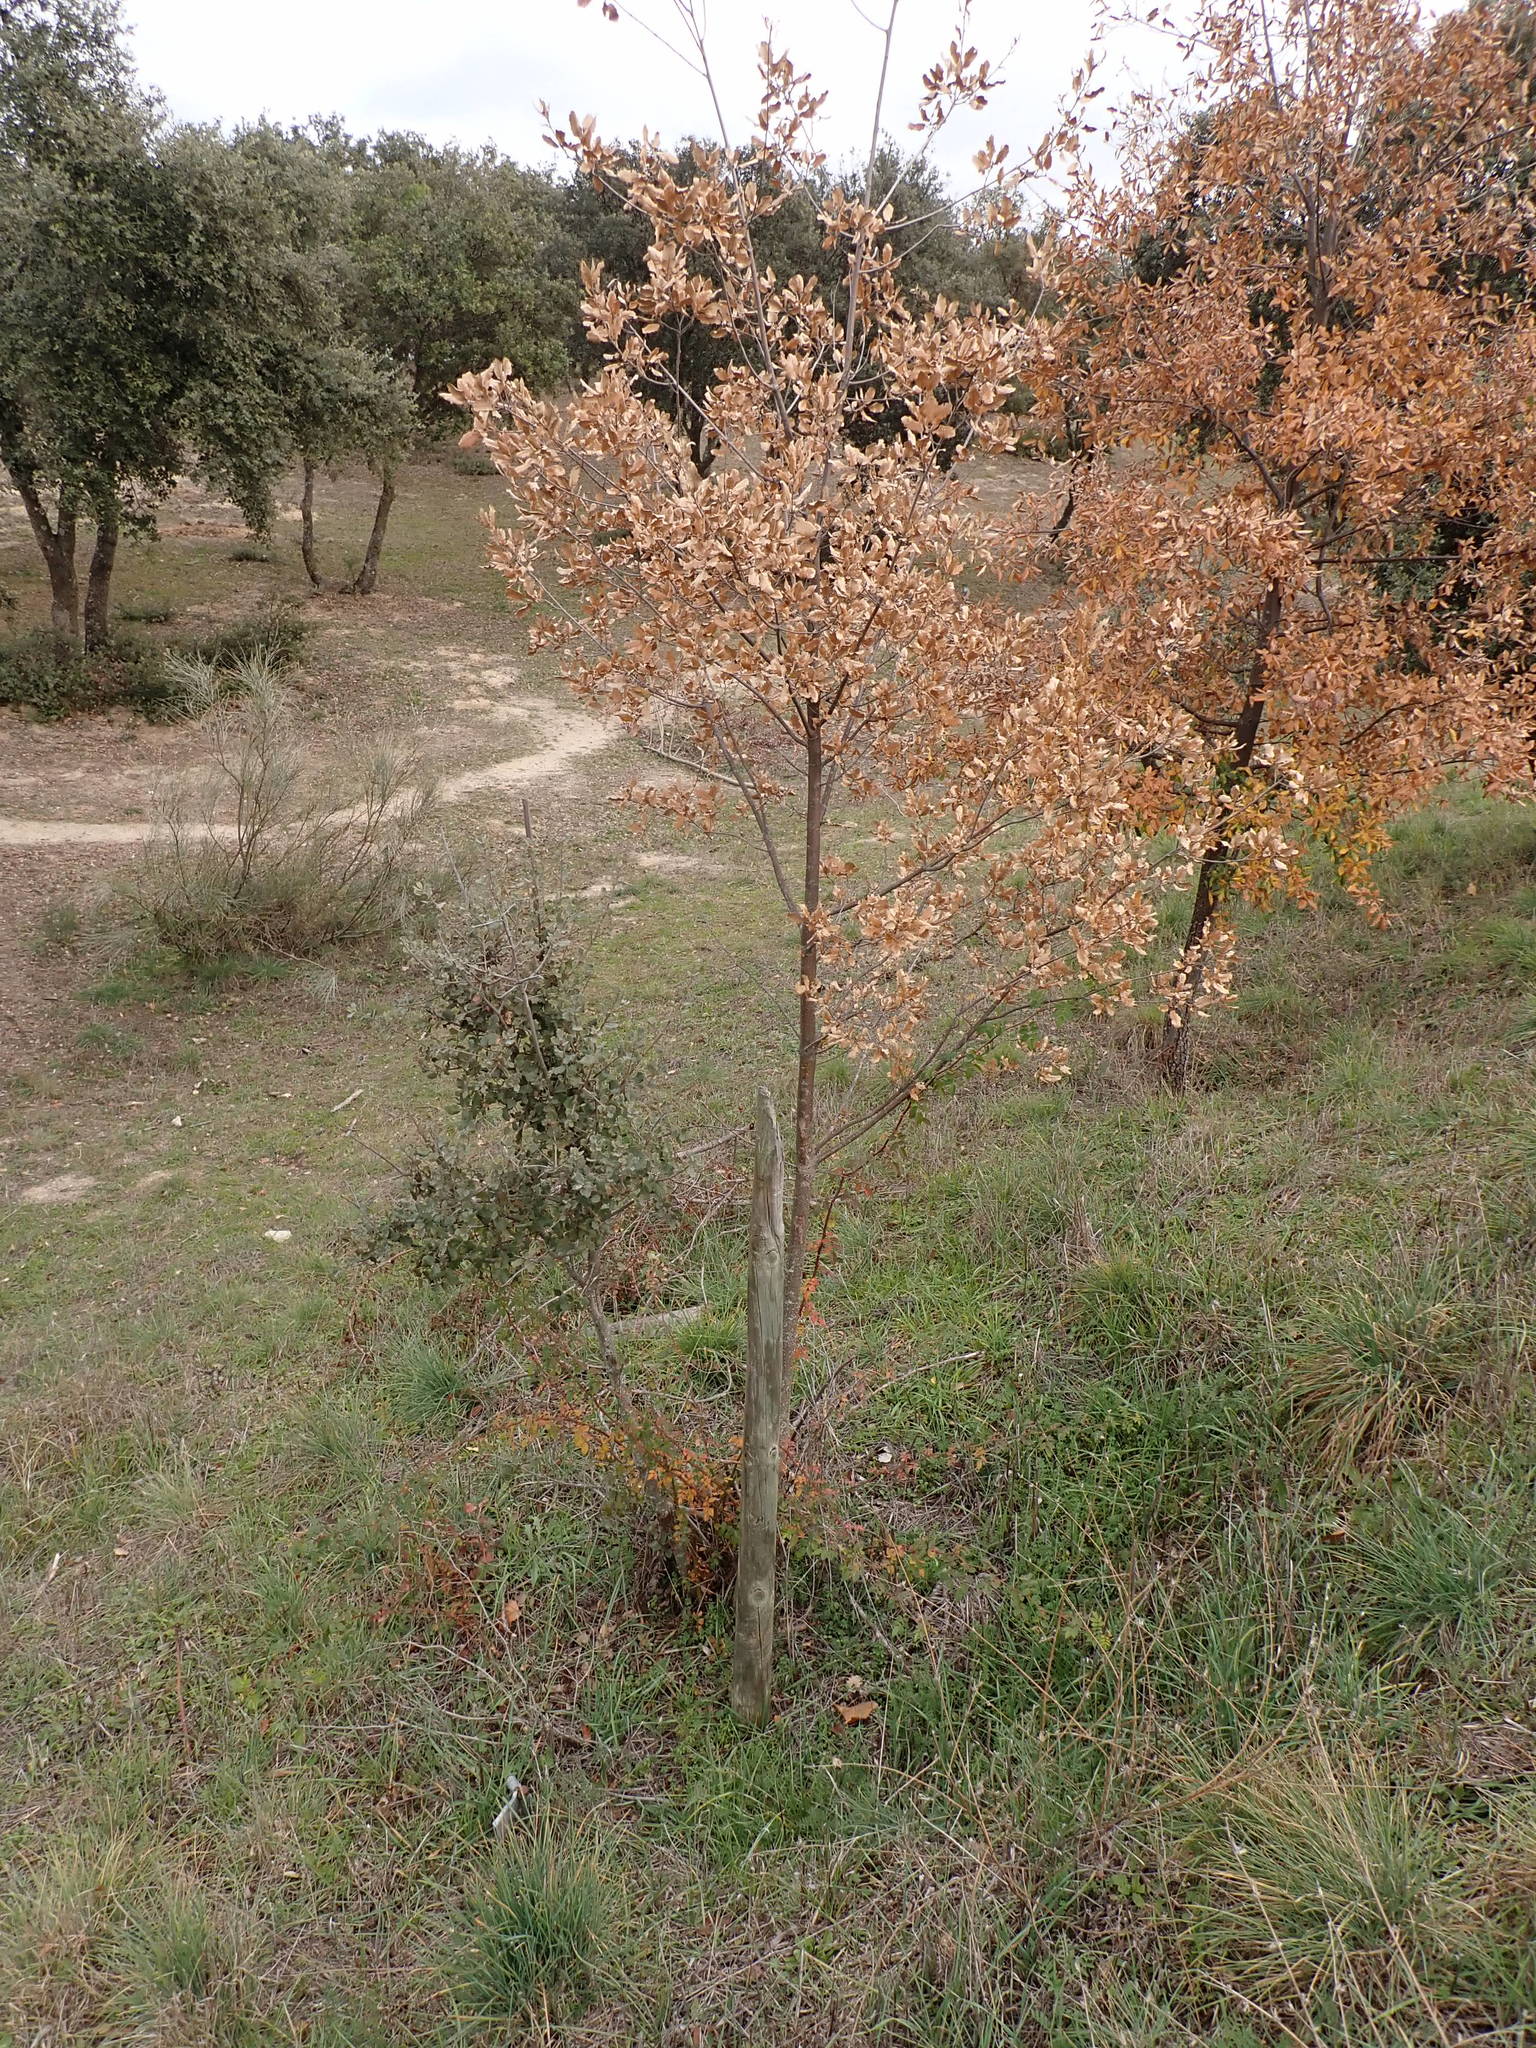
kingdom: Plantae
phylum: Tracheophyta
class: Magnoliopsida
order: Fagales
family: Fagaceae
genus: Quercus
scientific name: Quercus faginea
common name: Gall oak tree
